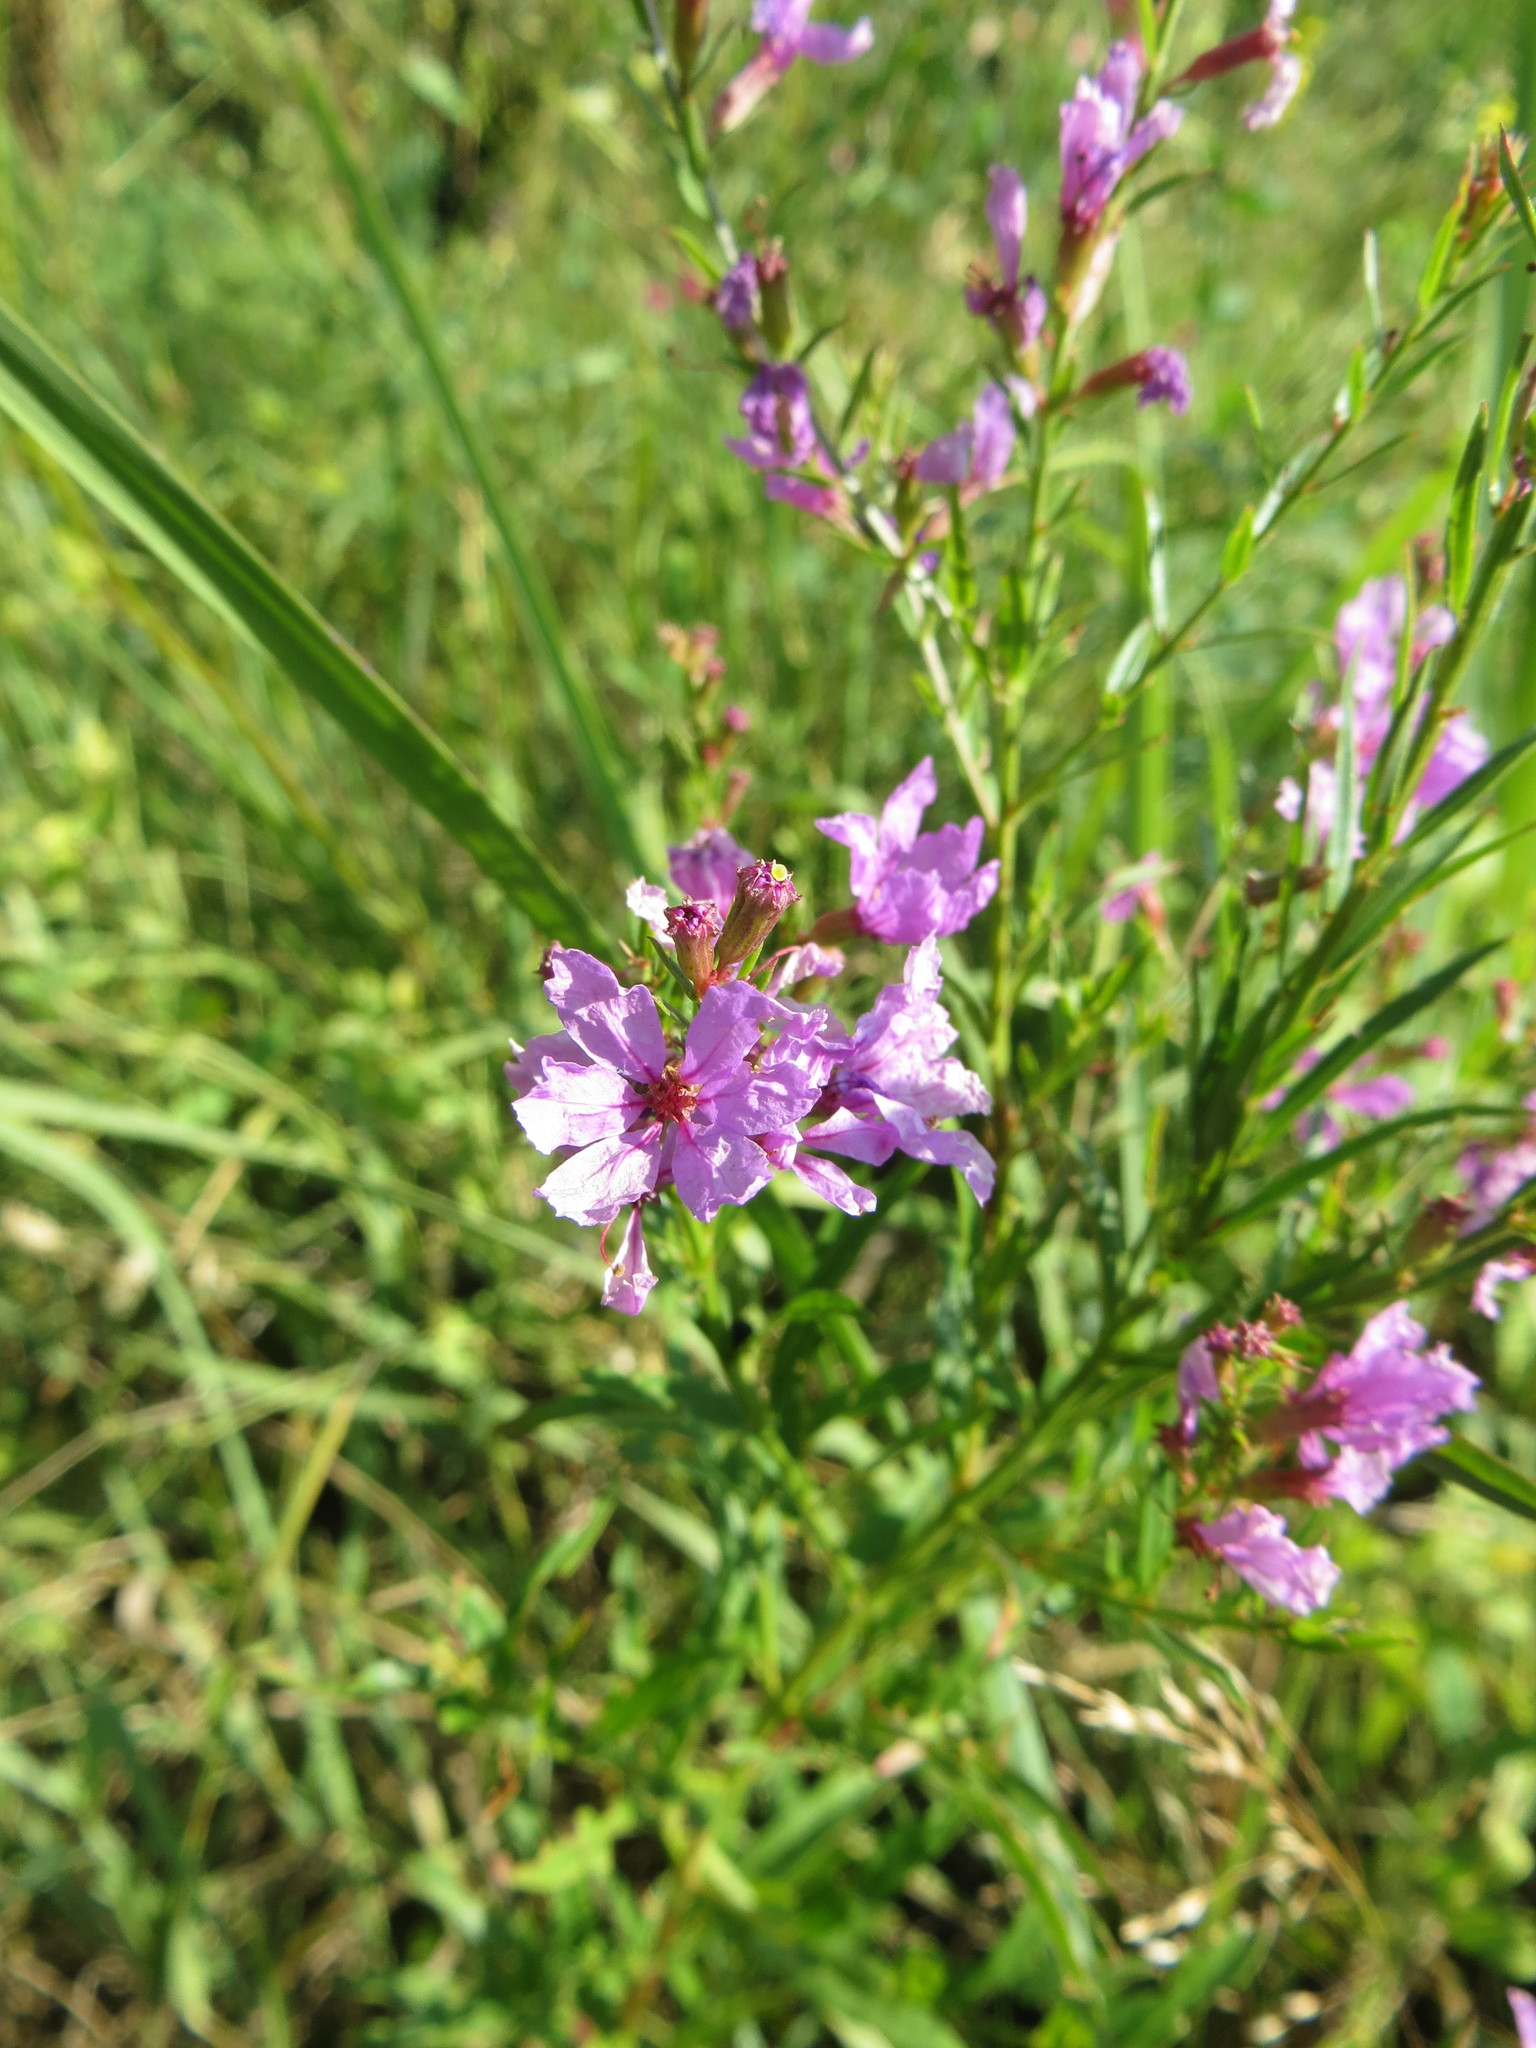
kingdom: Plantae
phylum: Tracheophyta
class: Magnoliopsida
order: Myrtales
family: Lythraceae
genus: Lythrum
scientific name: Lythrum virgatum
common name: European wand loosestrife
